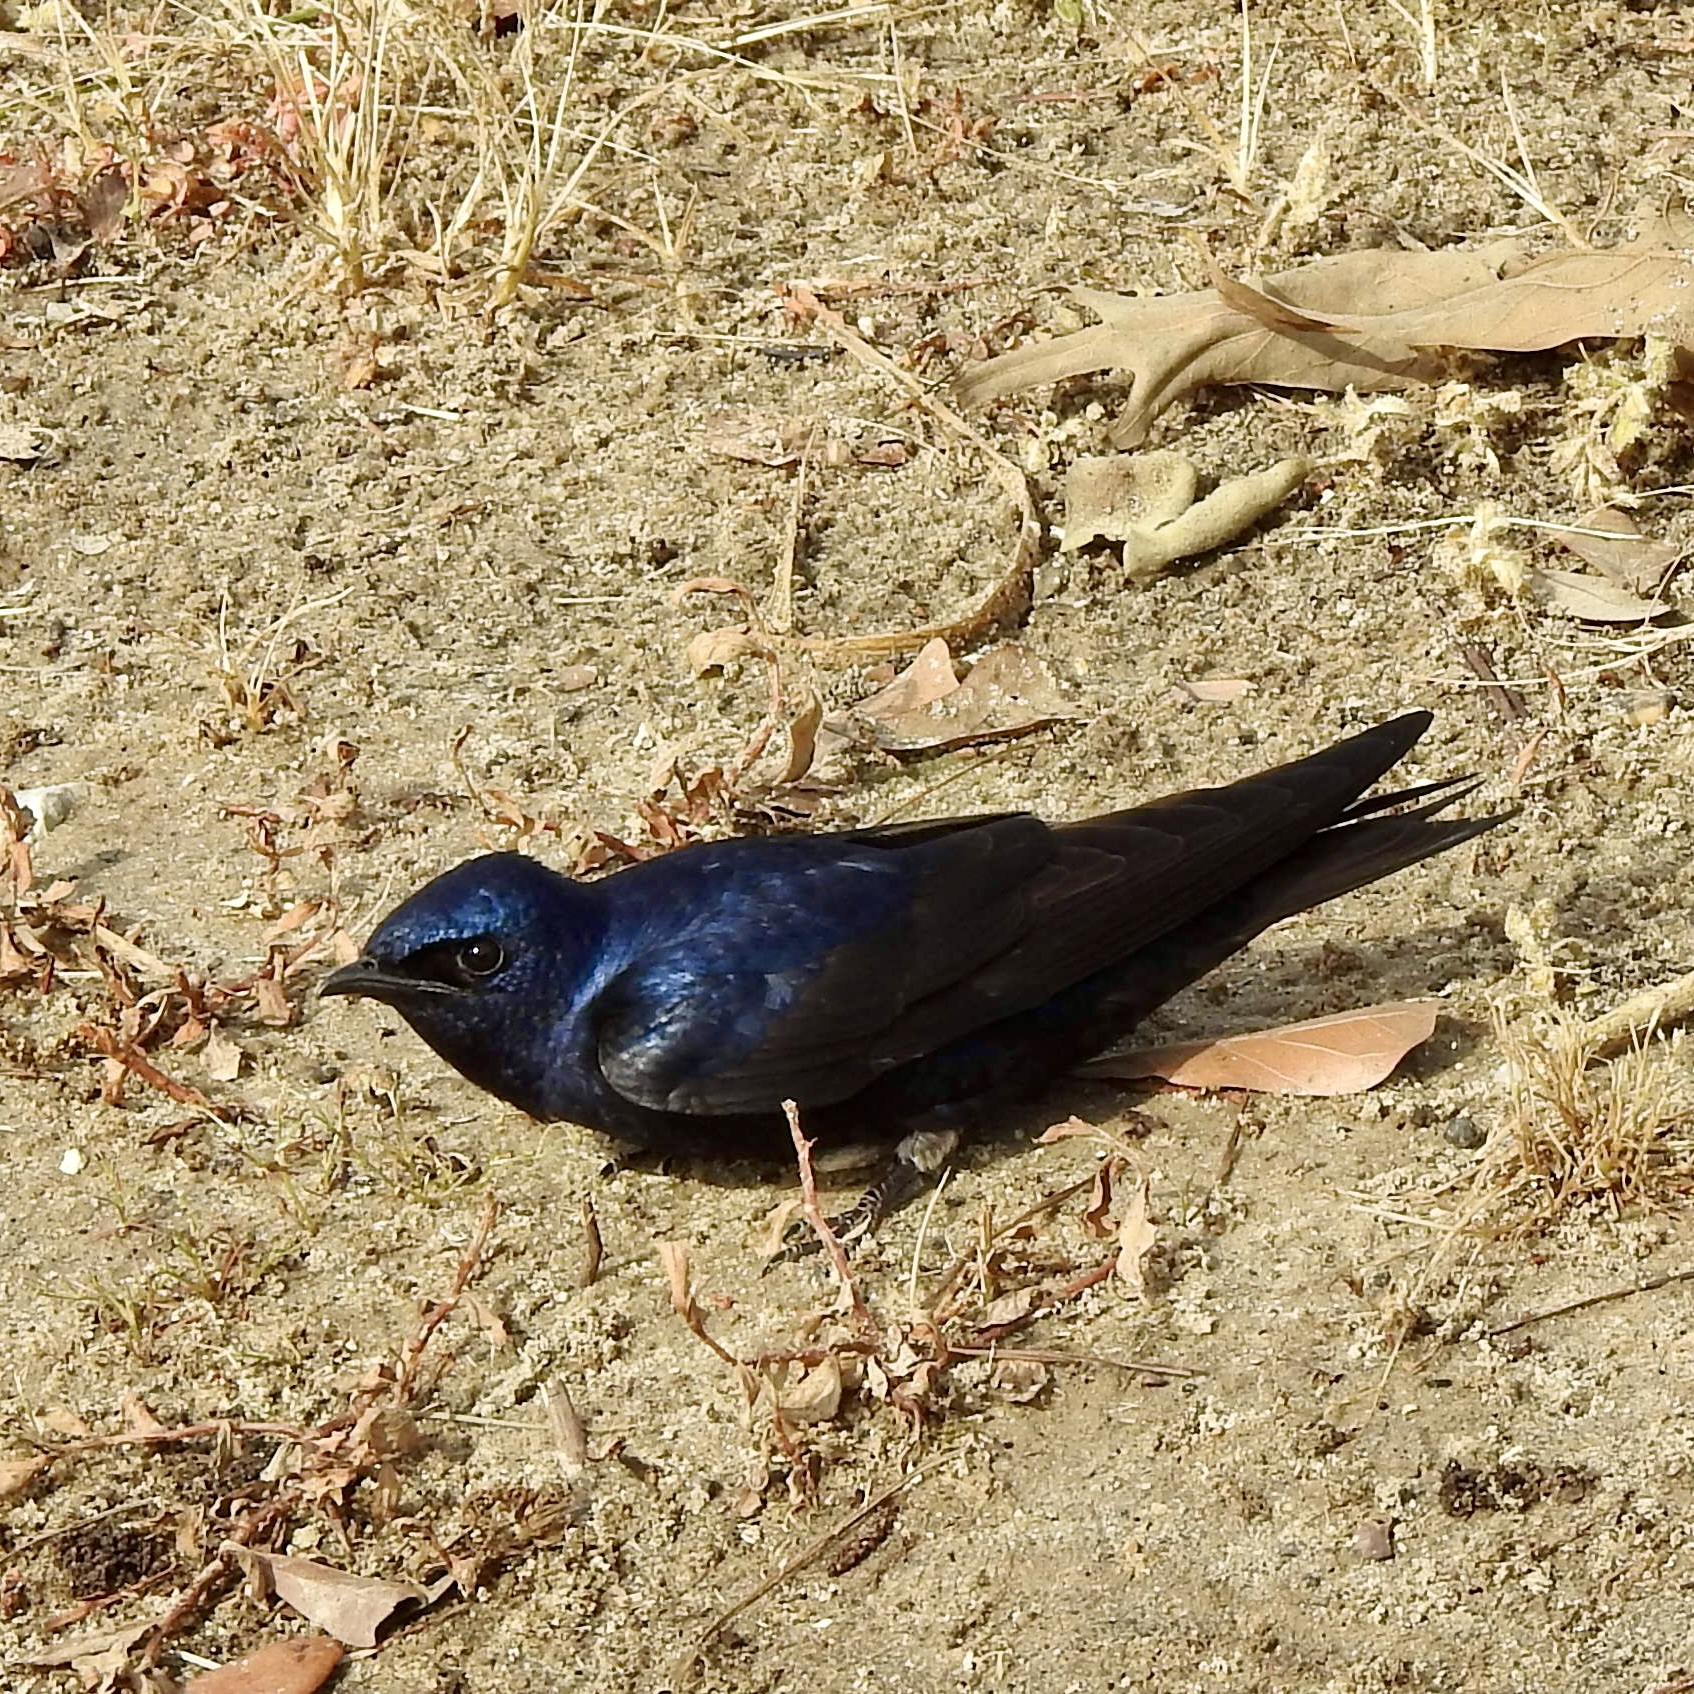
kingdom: Animalia
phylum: Chordata
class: Aves
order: Passeriformes
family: Hirundinidae
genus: Progne
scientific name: Progne subis
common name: Purple martin
